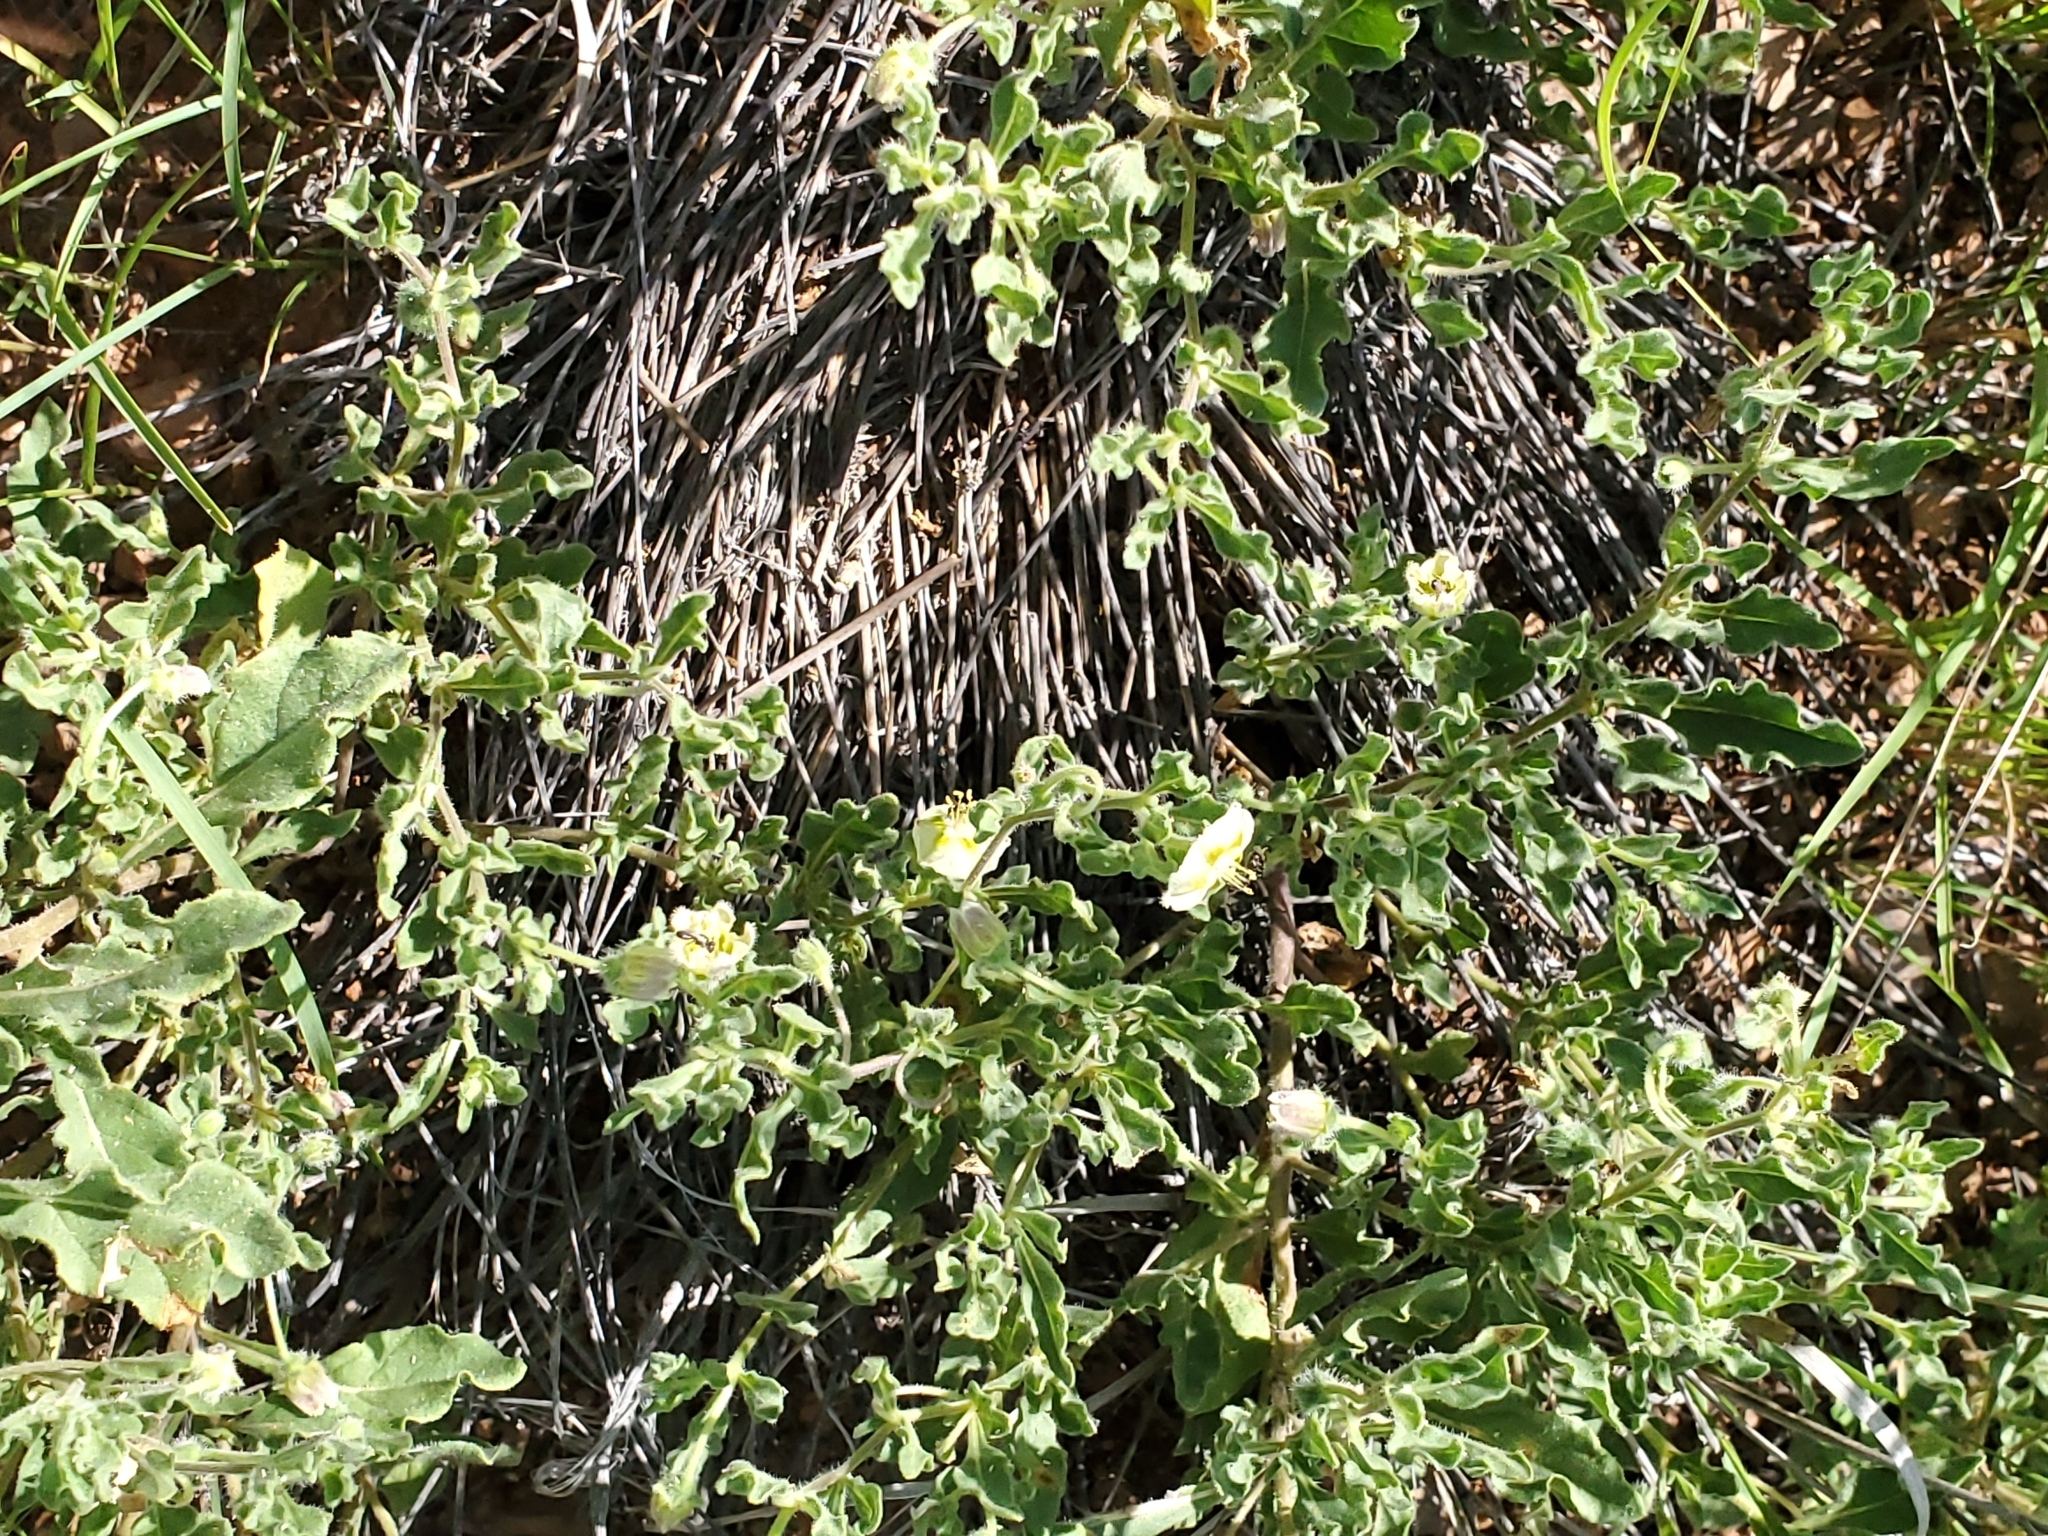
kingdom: Plantae
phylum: Tracheophyta
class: Magnoliopsida
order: Solanales
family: Solanaceae
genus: Chamaesaracha
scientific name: Chamaesaracha sordida
